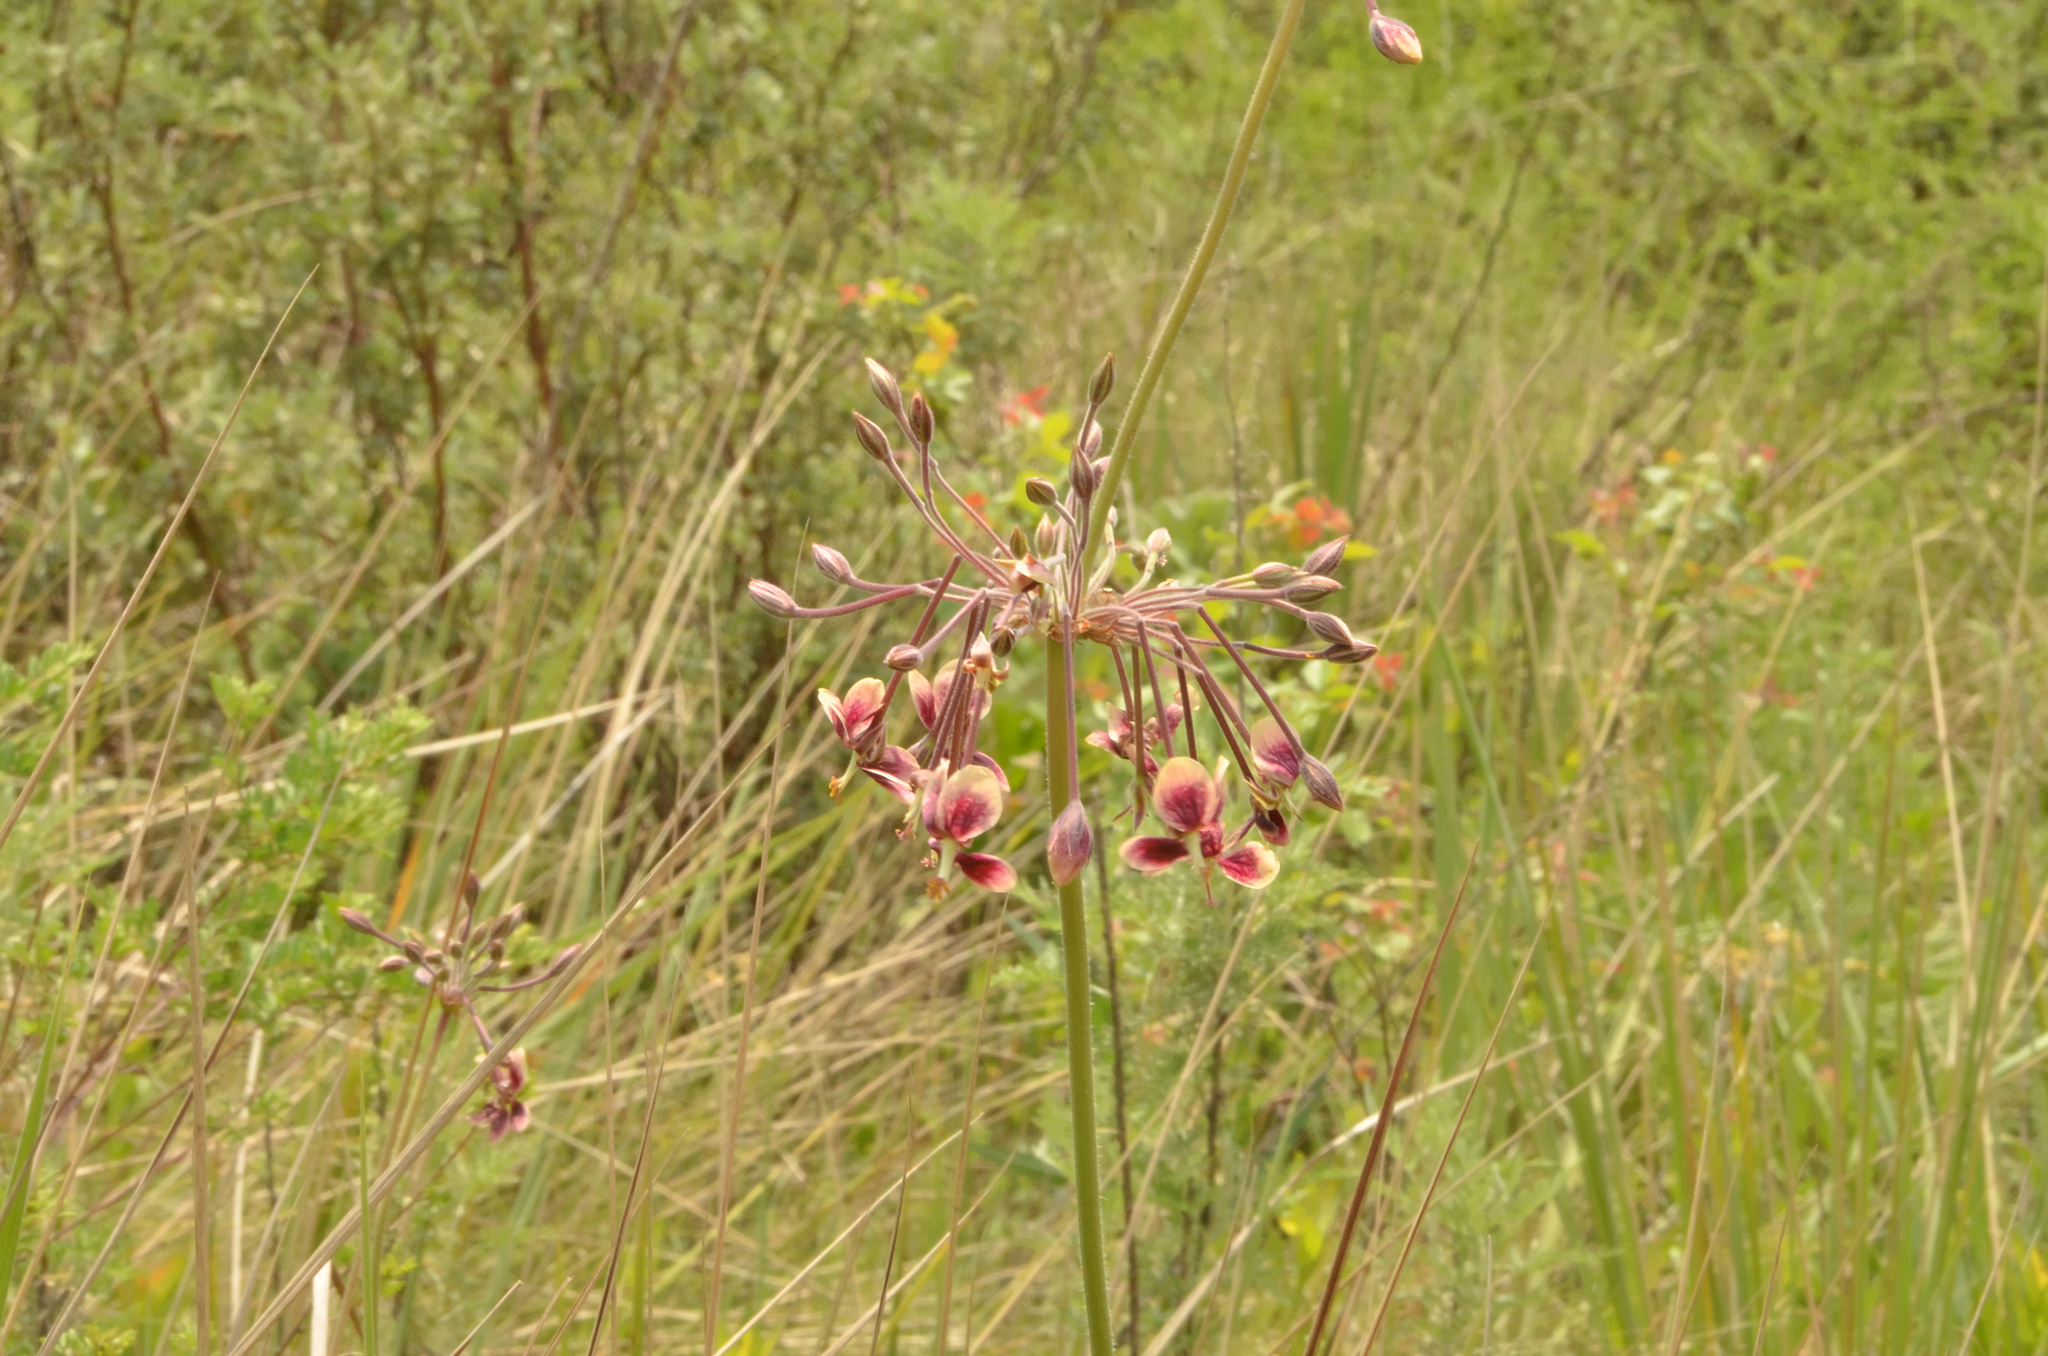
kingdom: Plantae
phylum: Tracheophyta
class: Magnoliopsida
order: Geraniales
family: Geraniaceae
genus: Pelargonium
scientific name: Pelargonium luridum
